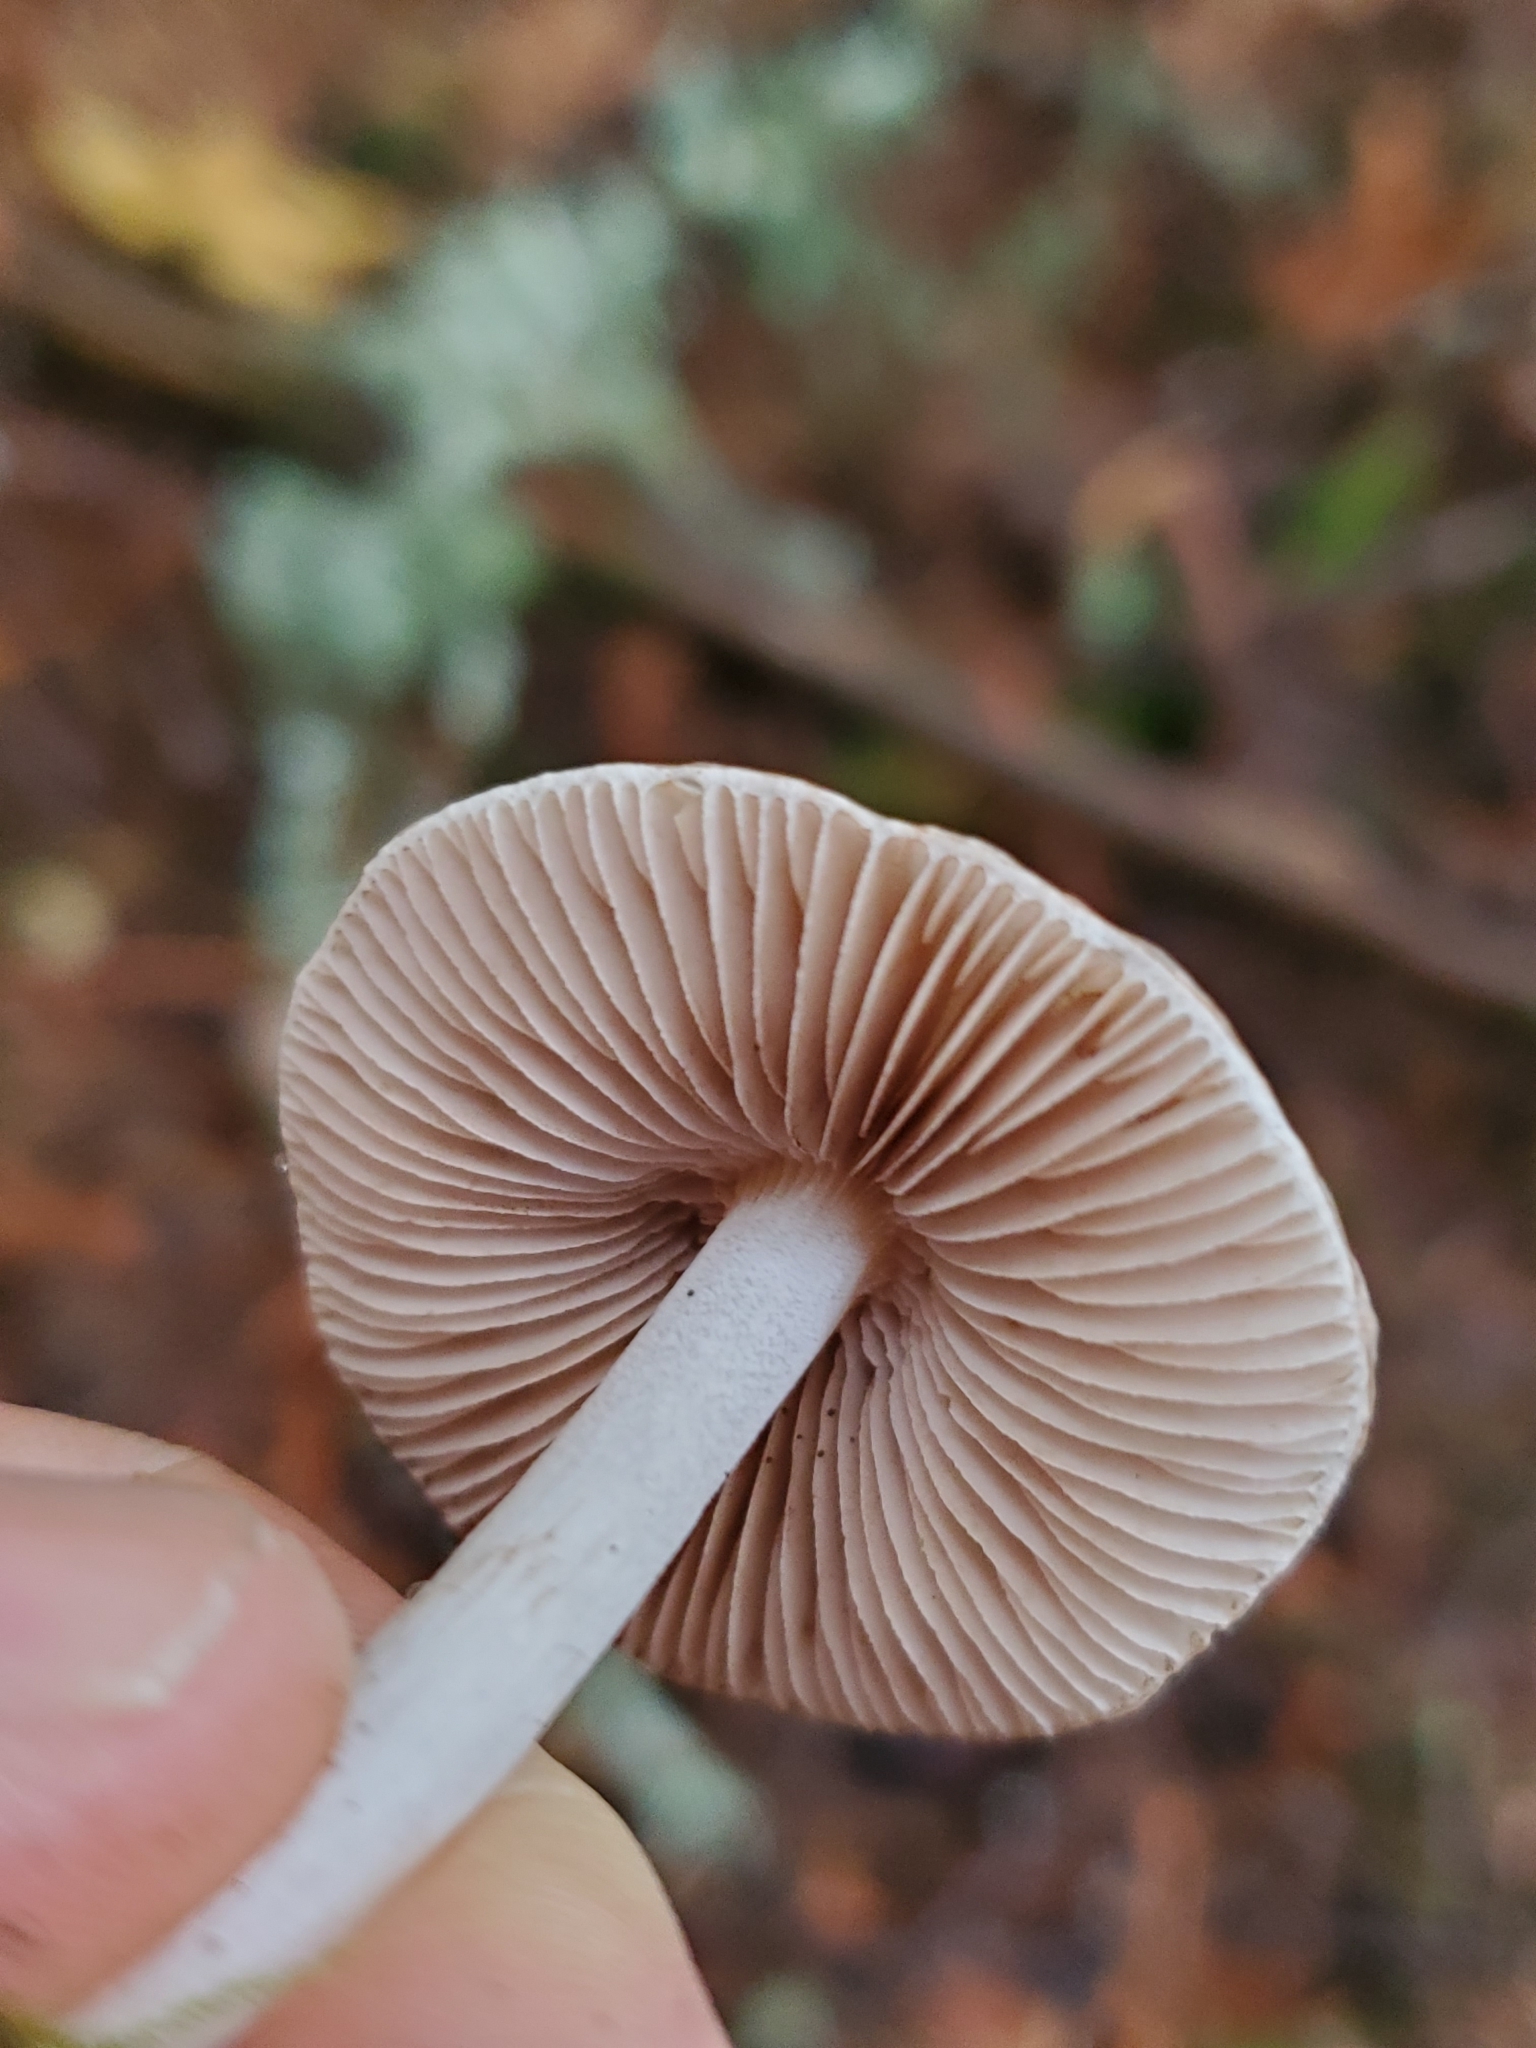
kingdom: Fungi
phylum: Basidiomycota
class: Agaricomycetes
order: Agaricales
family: Inocybaceae
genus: Inocybe
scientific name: Inocybe geophylla
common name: White fibrecap
